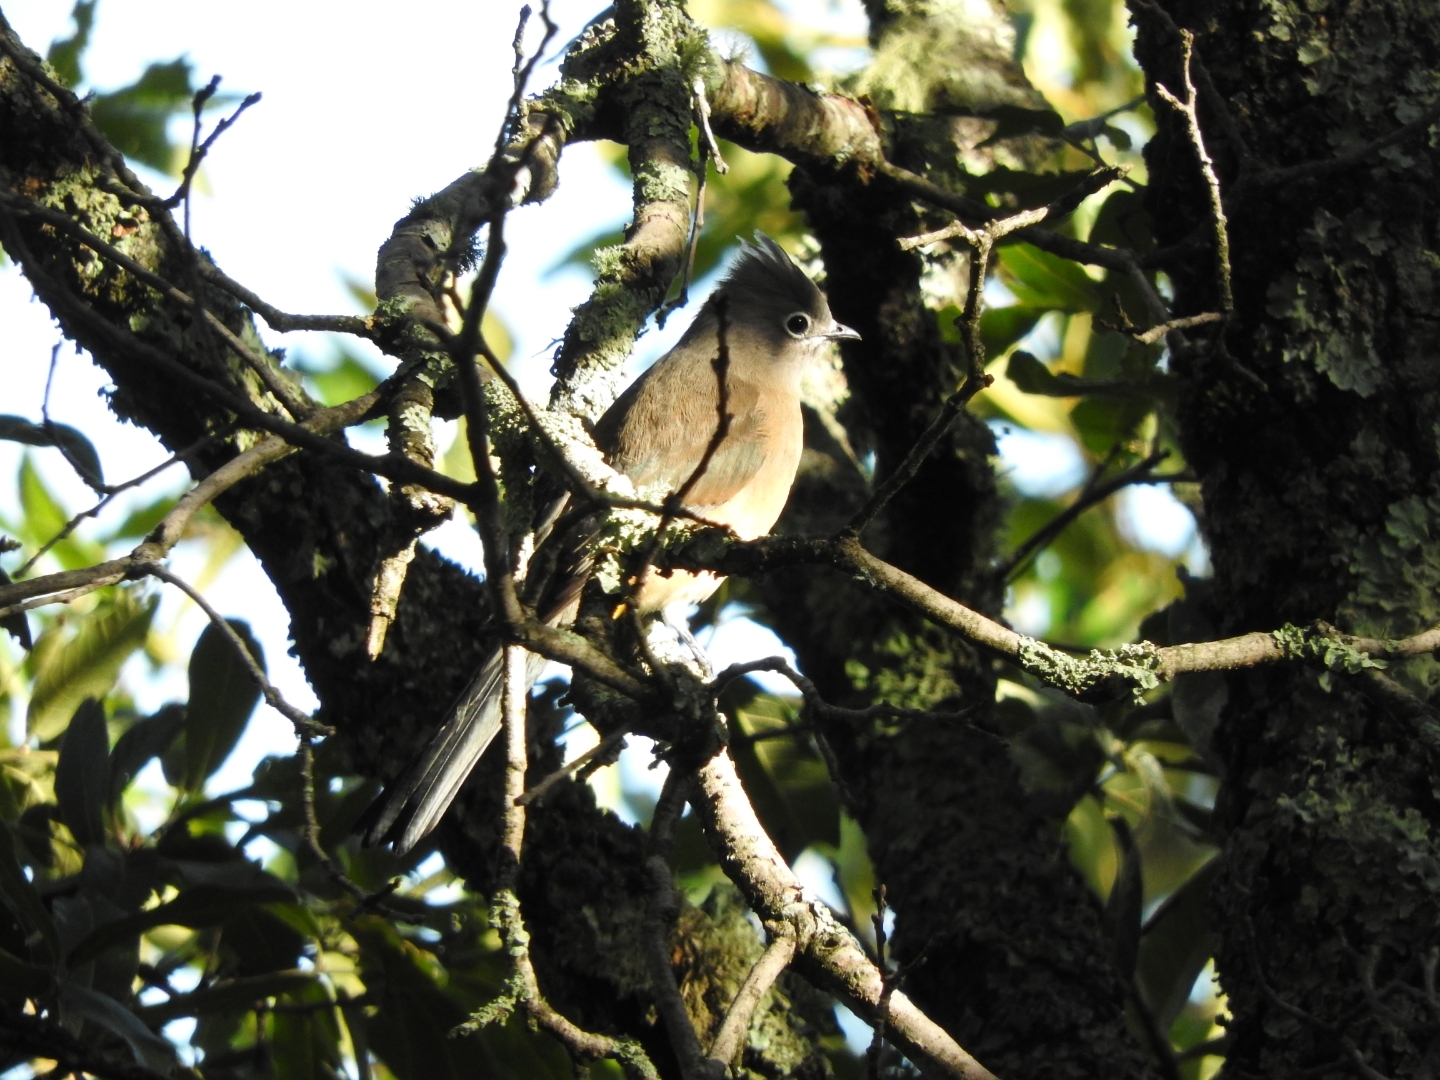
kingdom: Animalia
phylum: Chordata
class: Aves
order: Passeriformes
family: Ptilogonatidae
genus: Ptilogonys
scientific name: Ptilogonys cinereus
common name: Gray silky-flycatcher
